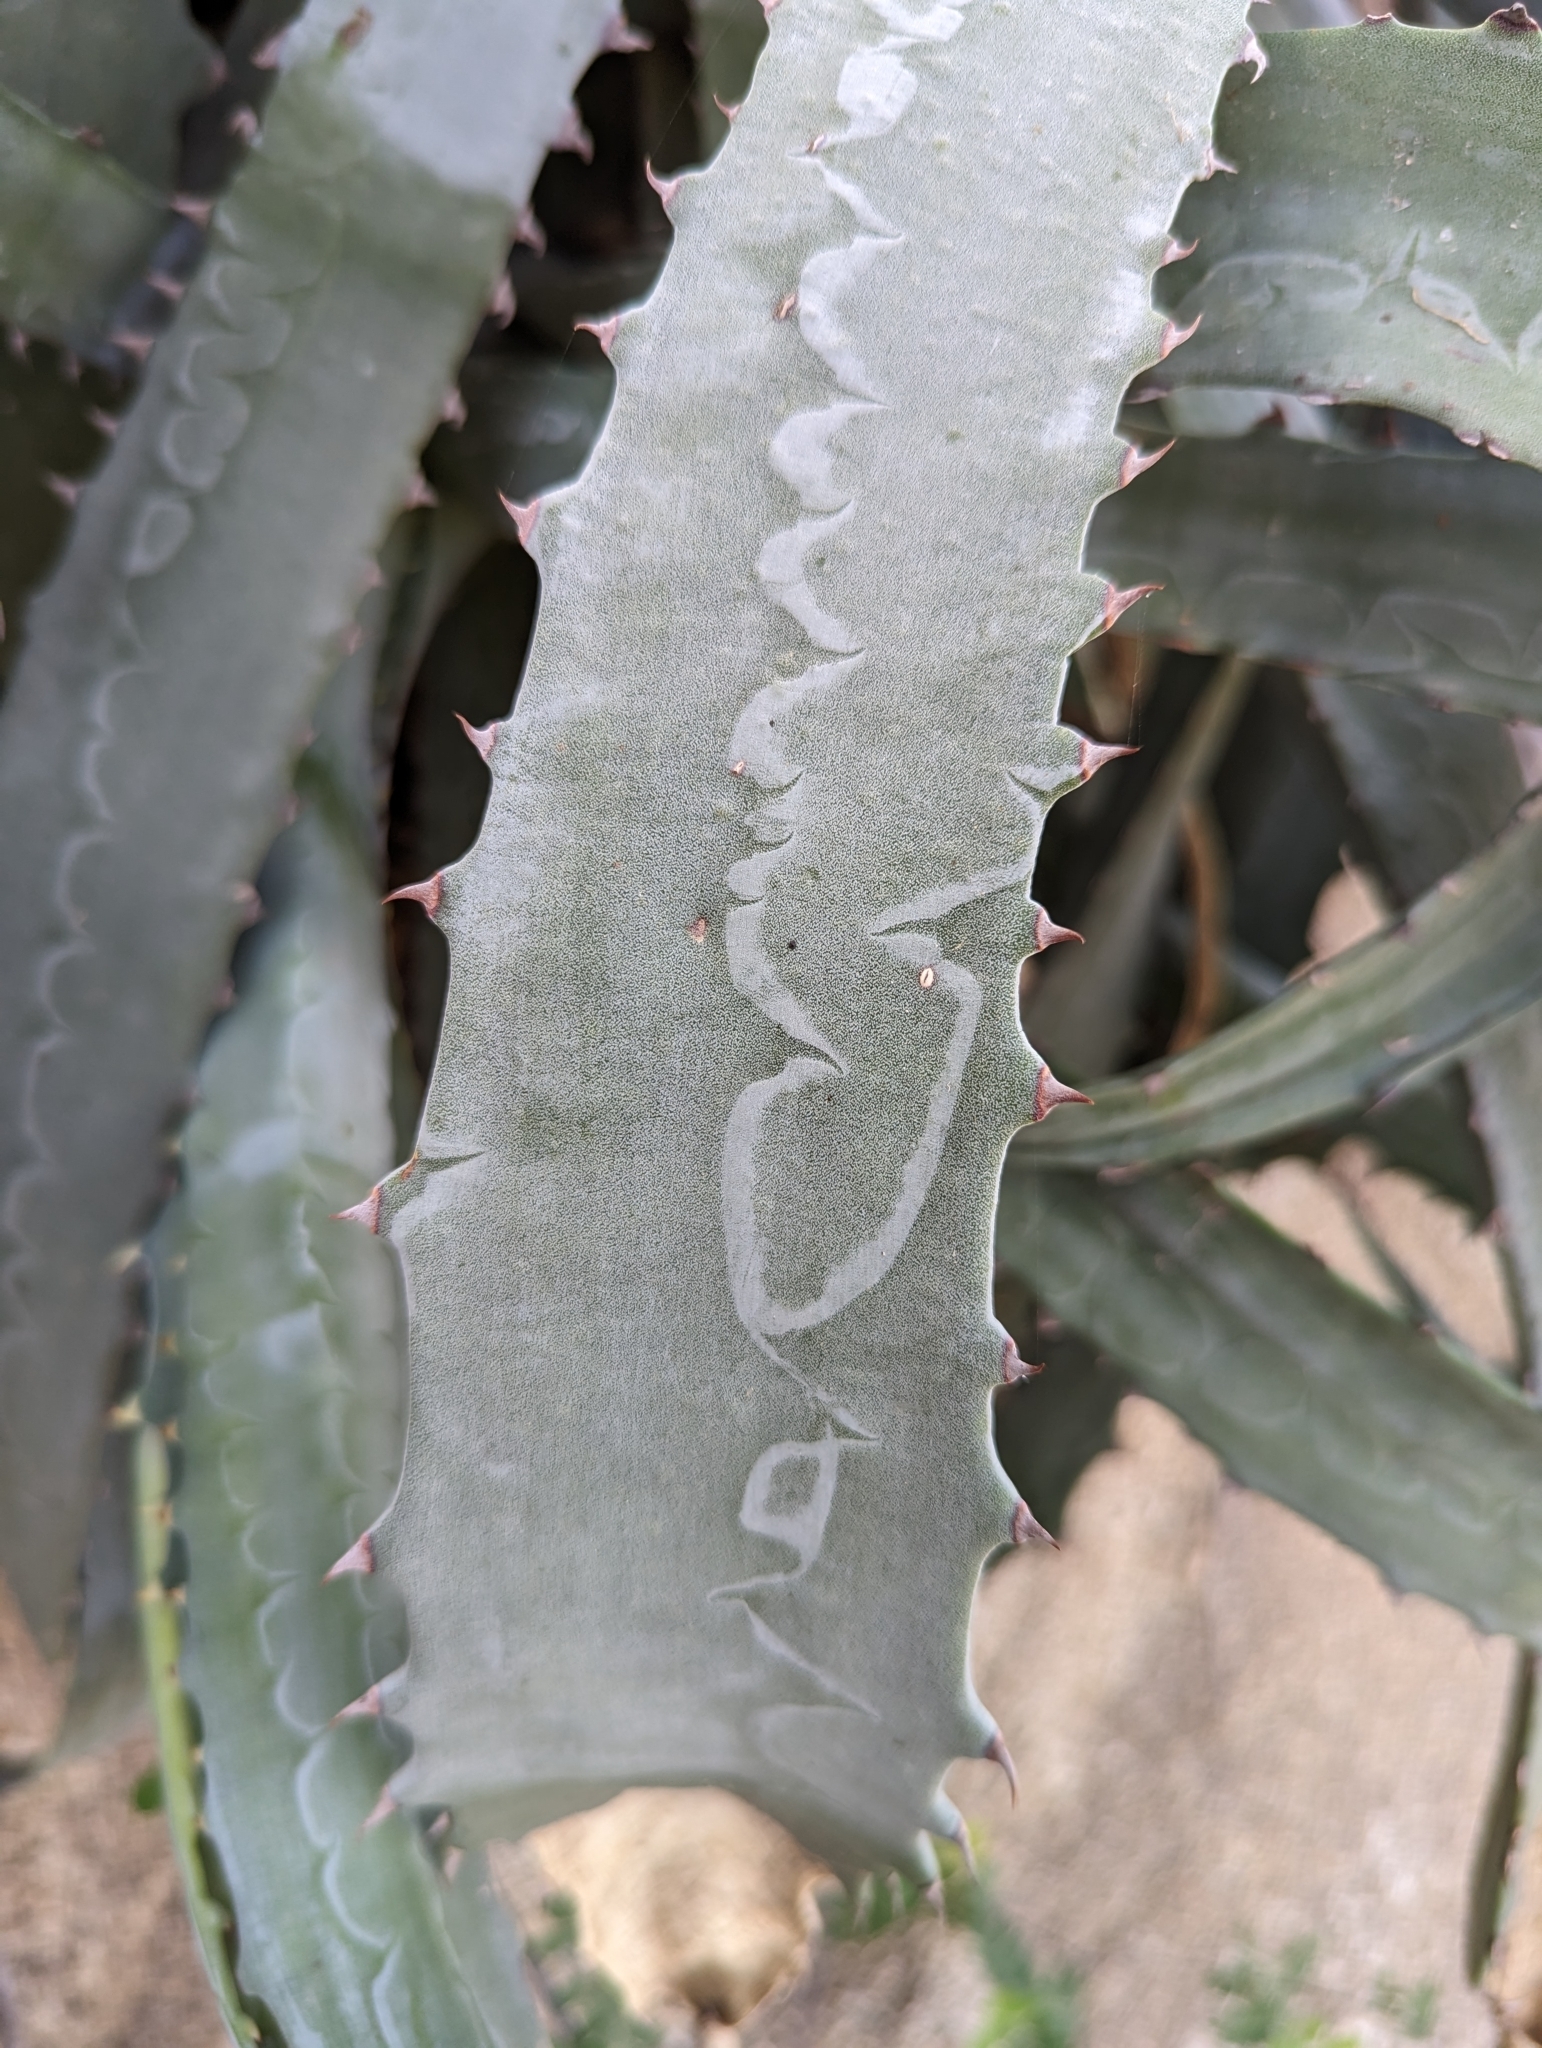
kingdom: Plantae
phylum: Tracheophyta
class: Liliopsida
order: Asparagales
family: Asparagaceae
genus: Agave
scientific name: Agave aurea
